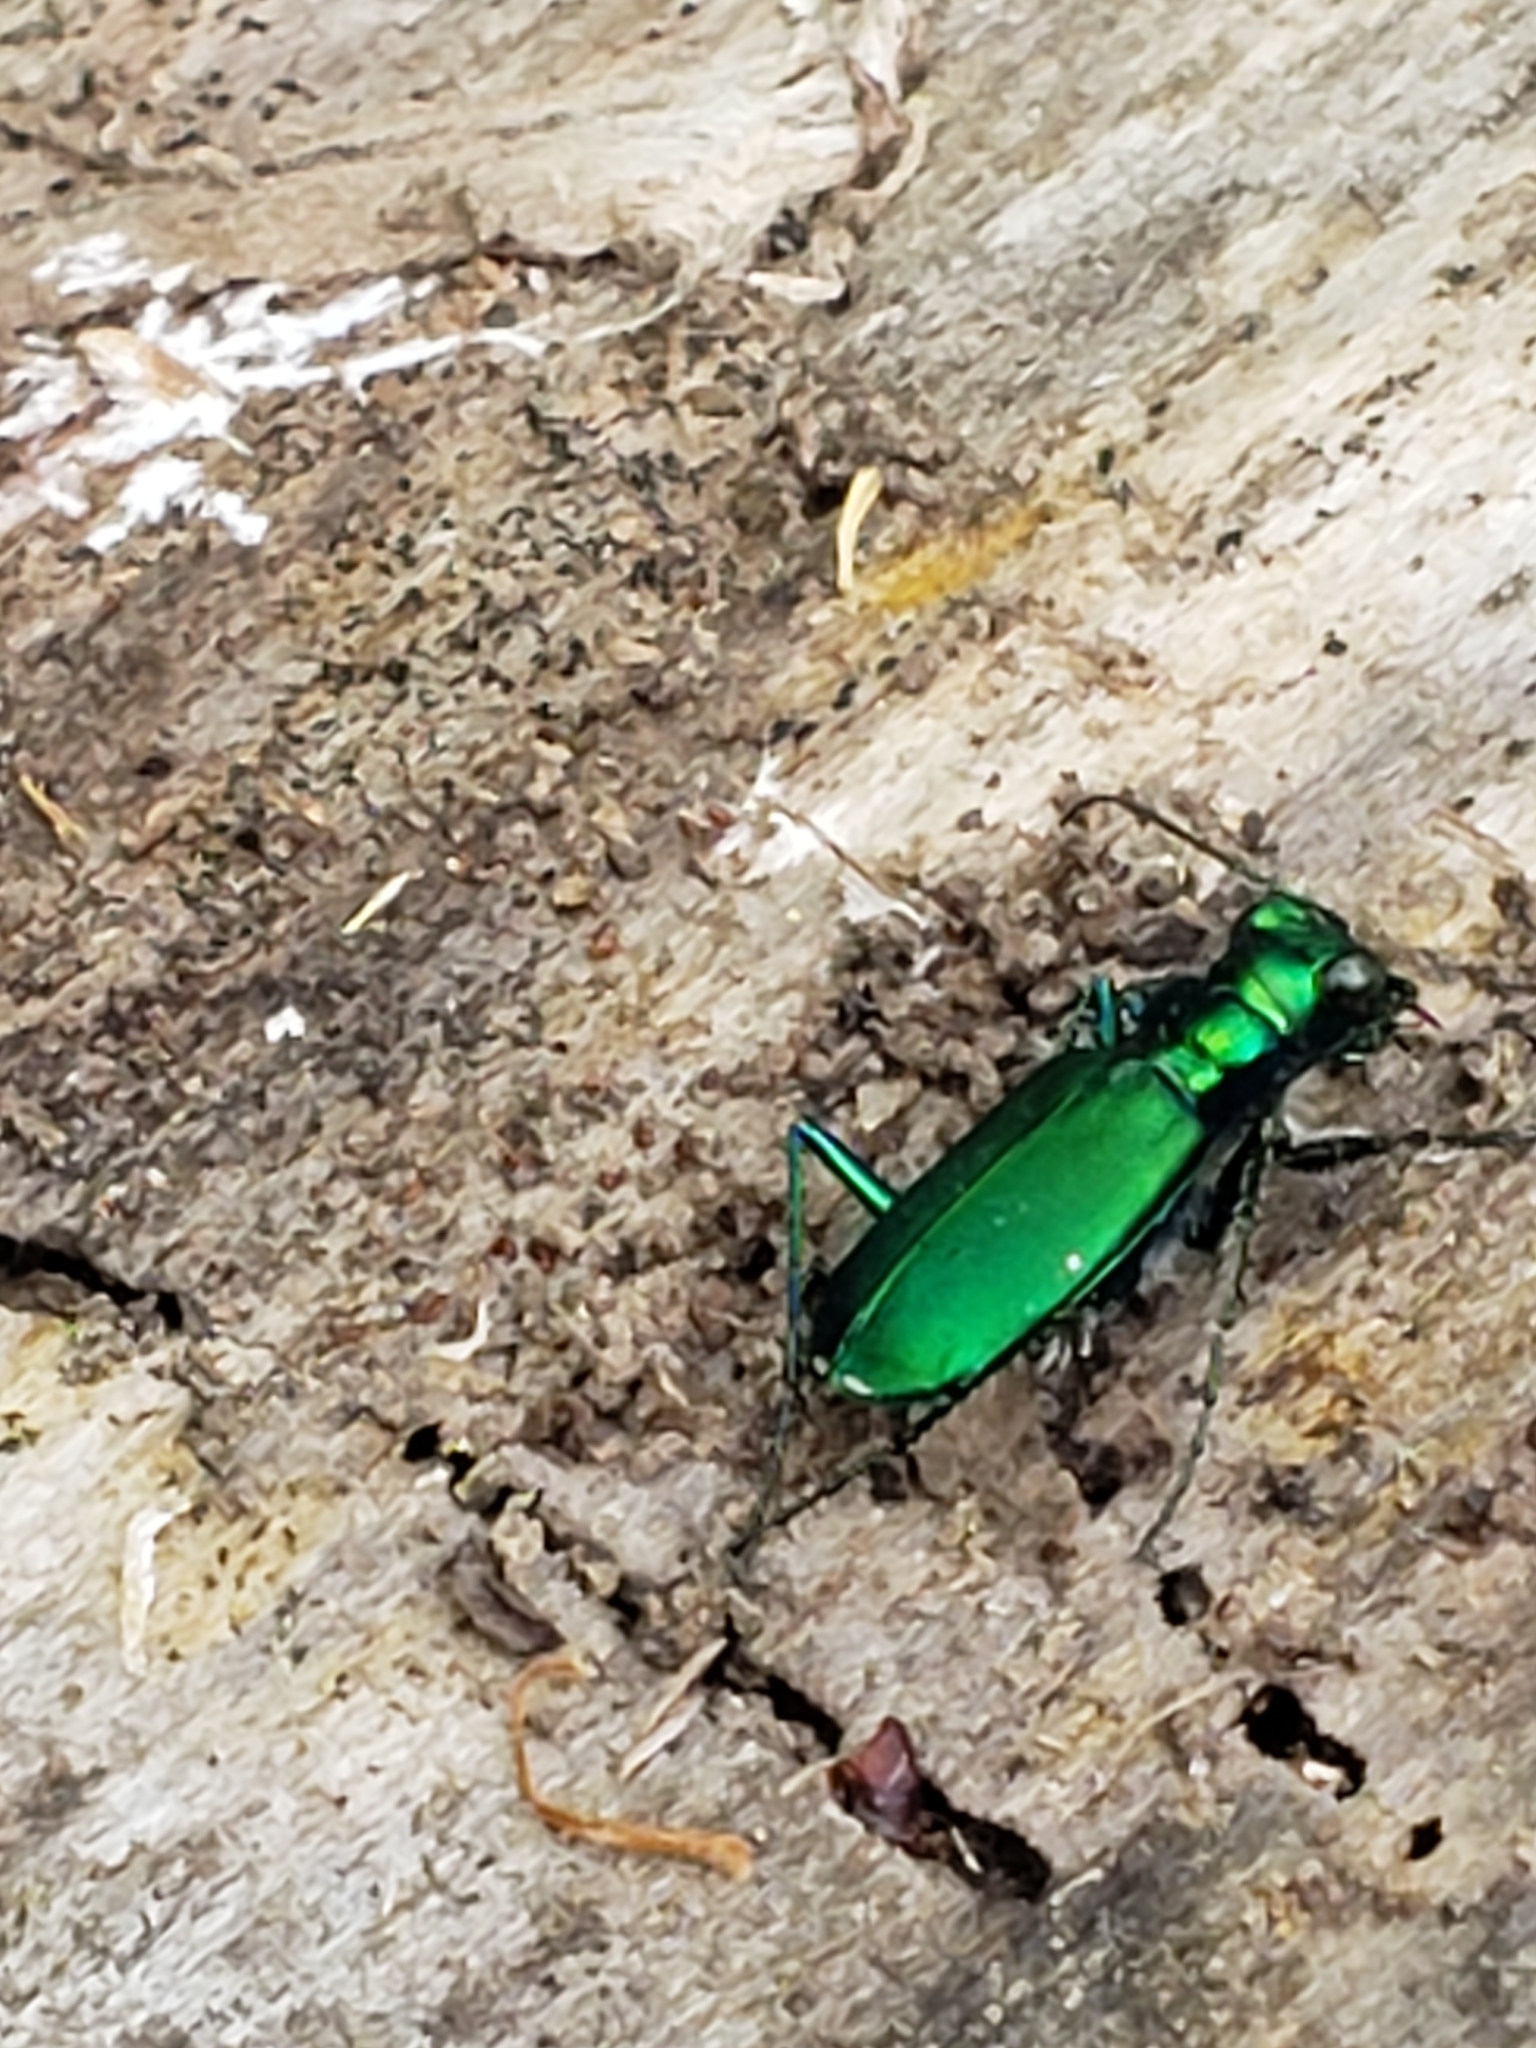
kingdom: Animalia
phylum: Arthropoda
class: Insecta
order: Coleoptera
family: Carabidae
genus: Cicindela
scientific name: Cicindela sexguttata
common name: Six-spotted tiger beetle
